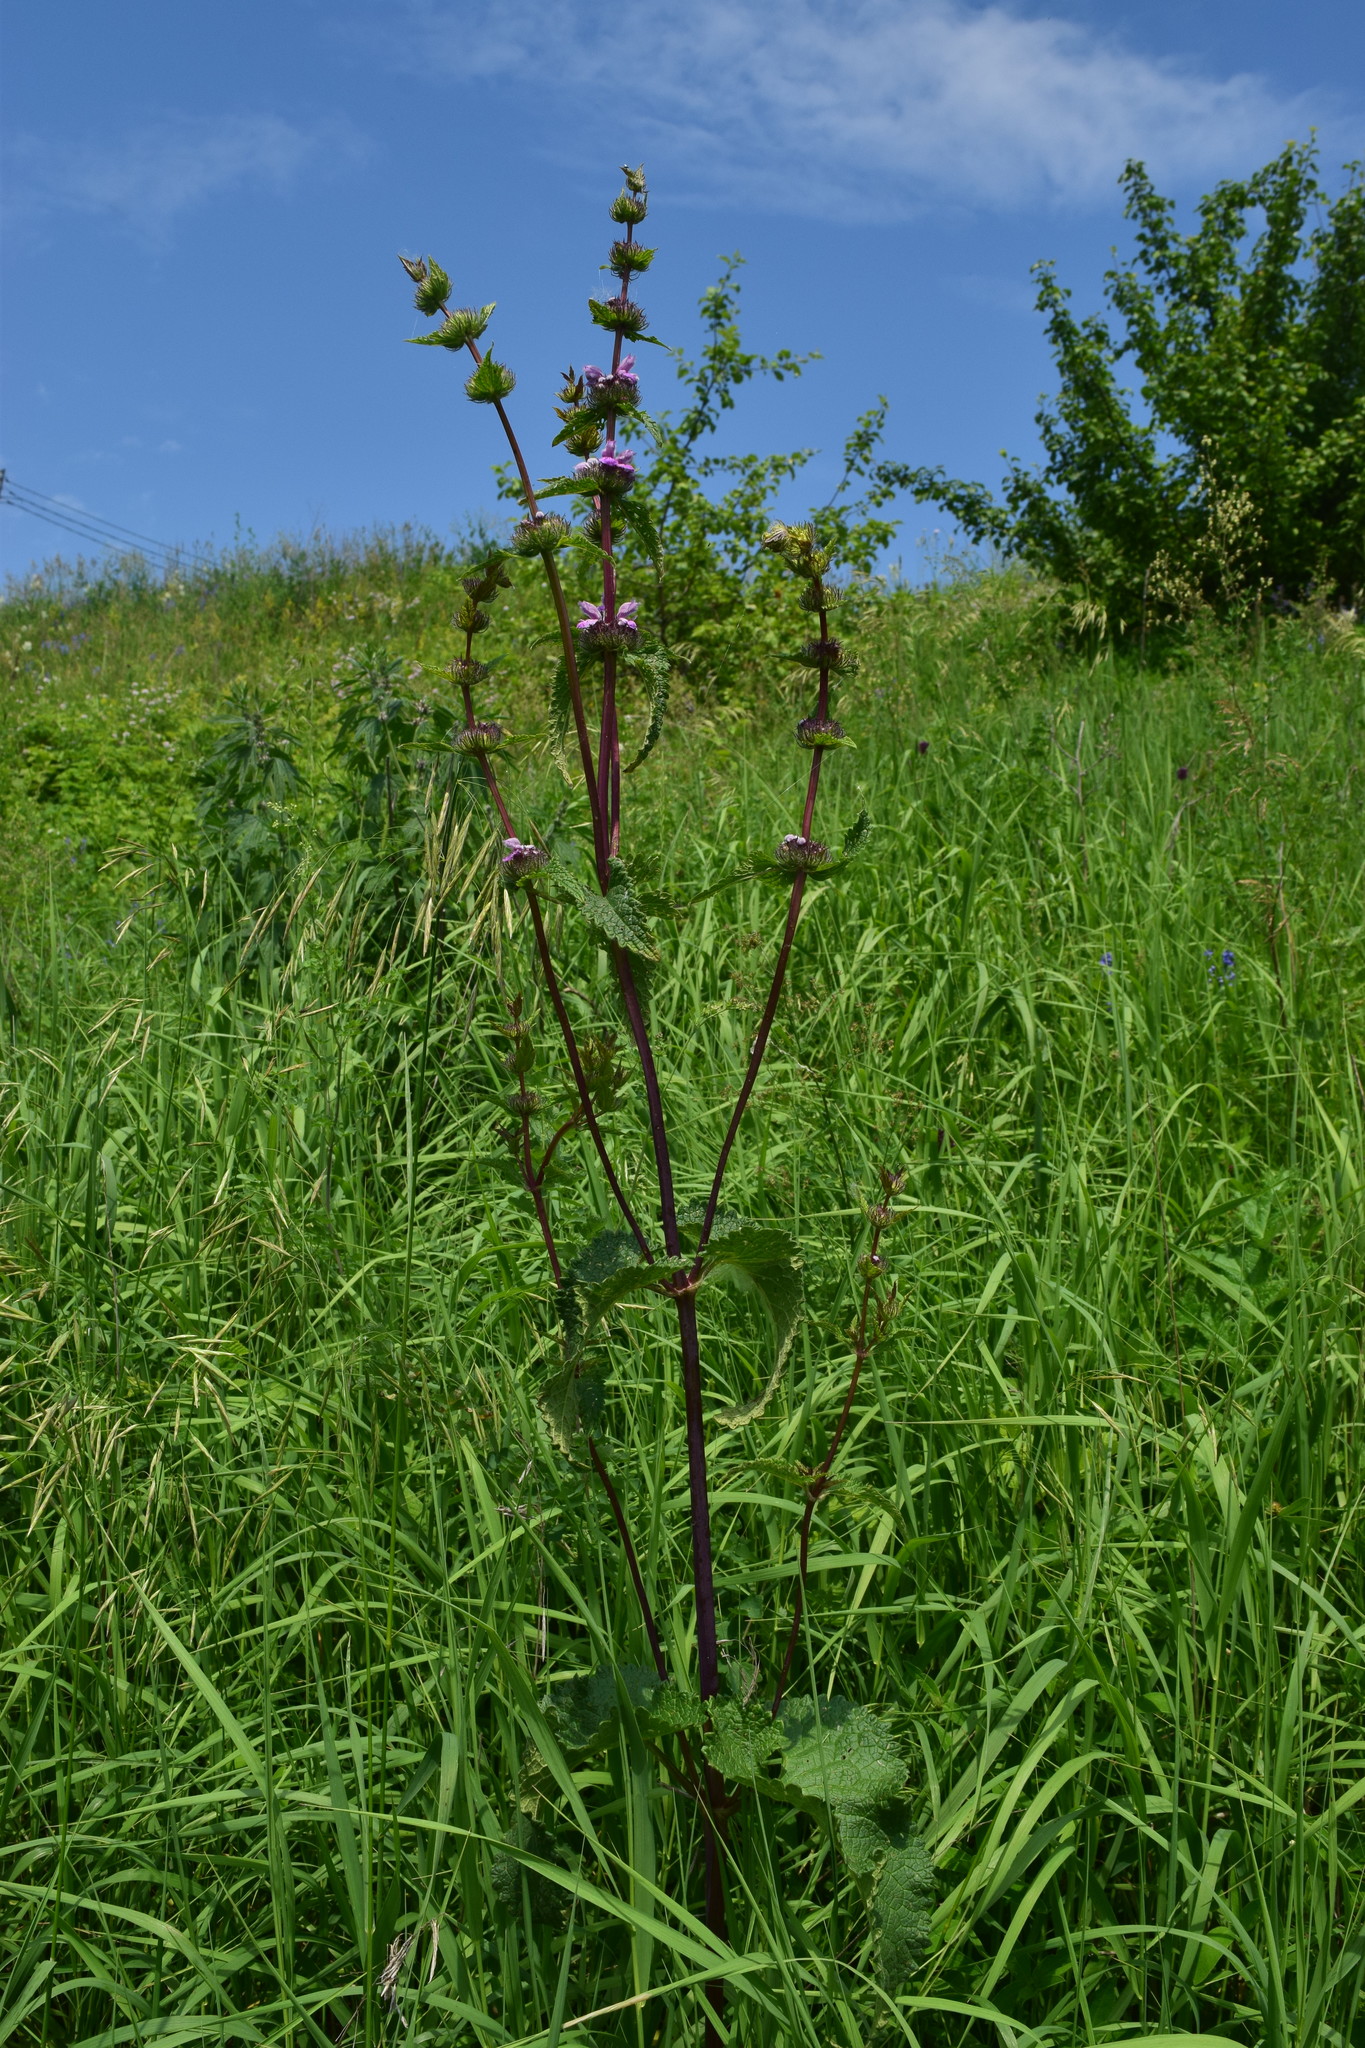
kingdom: Plantae
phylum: Tracheophyta
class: Magnoliopsida
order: Lamiales
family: Lamiaceae
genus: Phlomoides
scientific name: Phlomoides tuberosa
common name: Tuberous jerusalem sage
